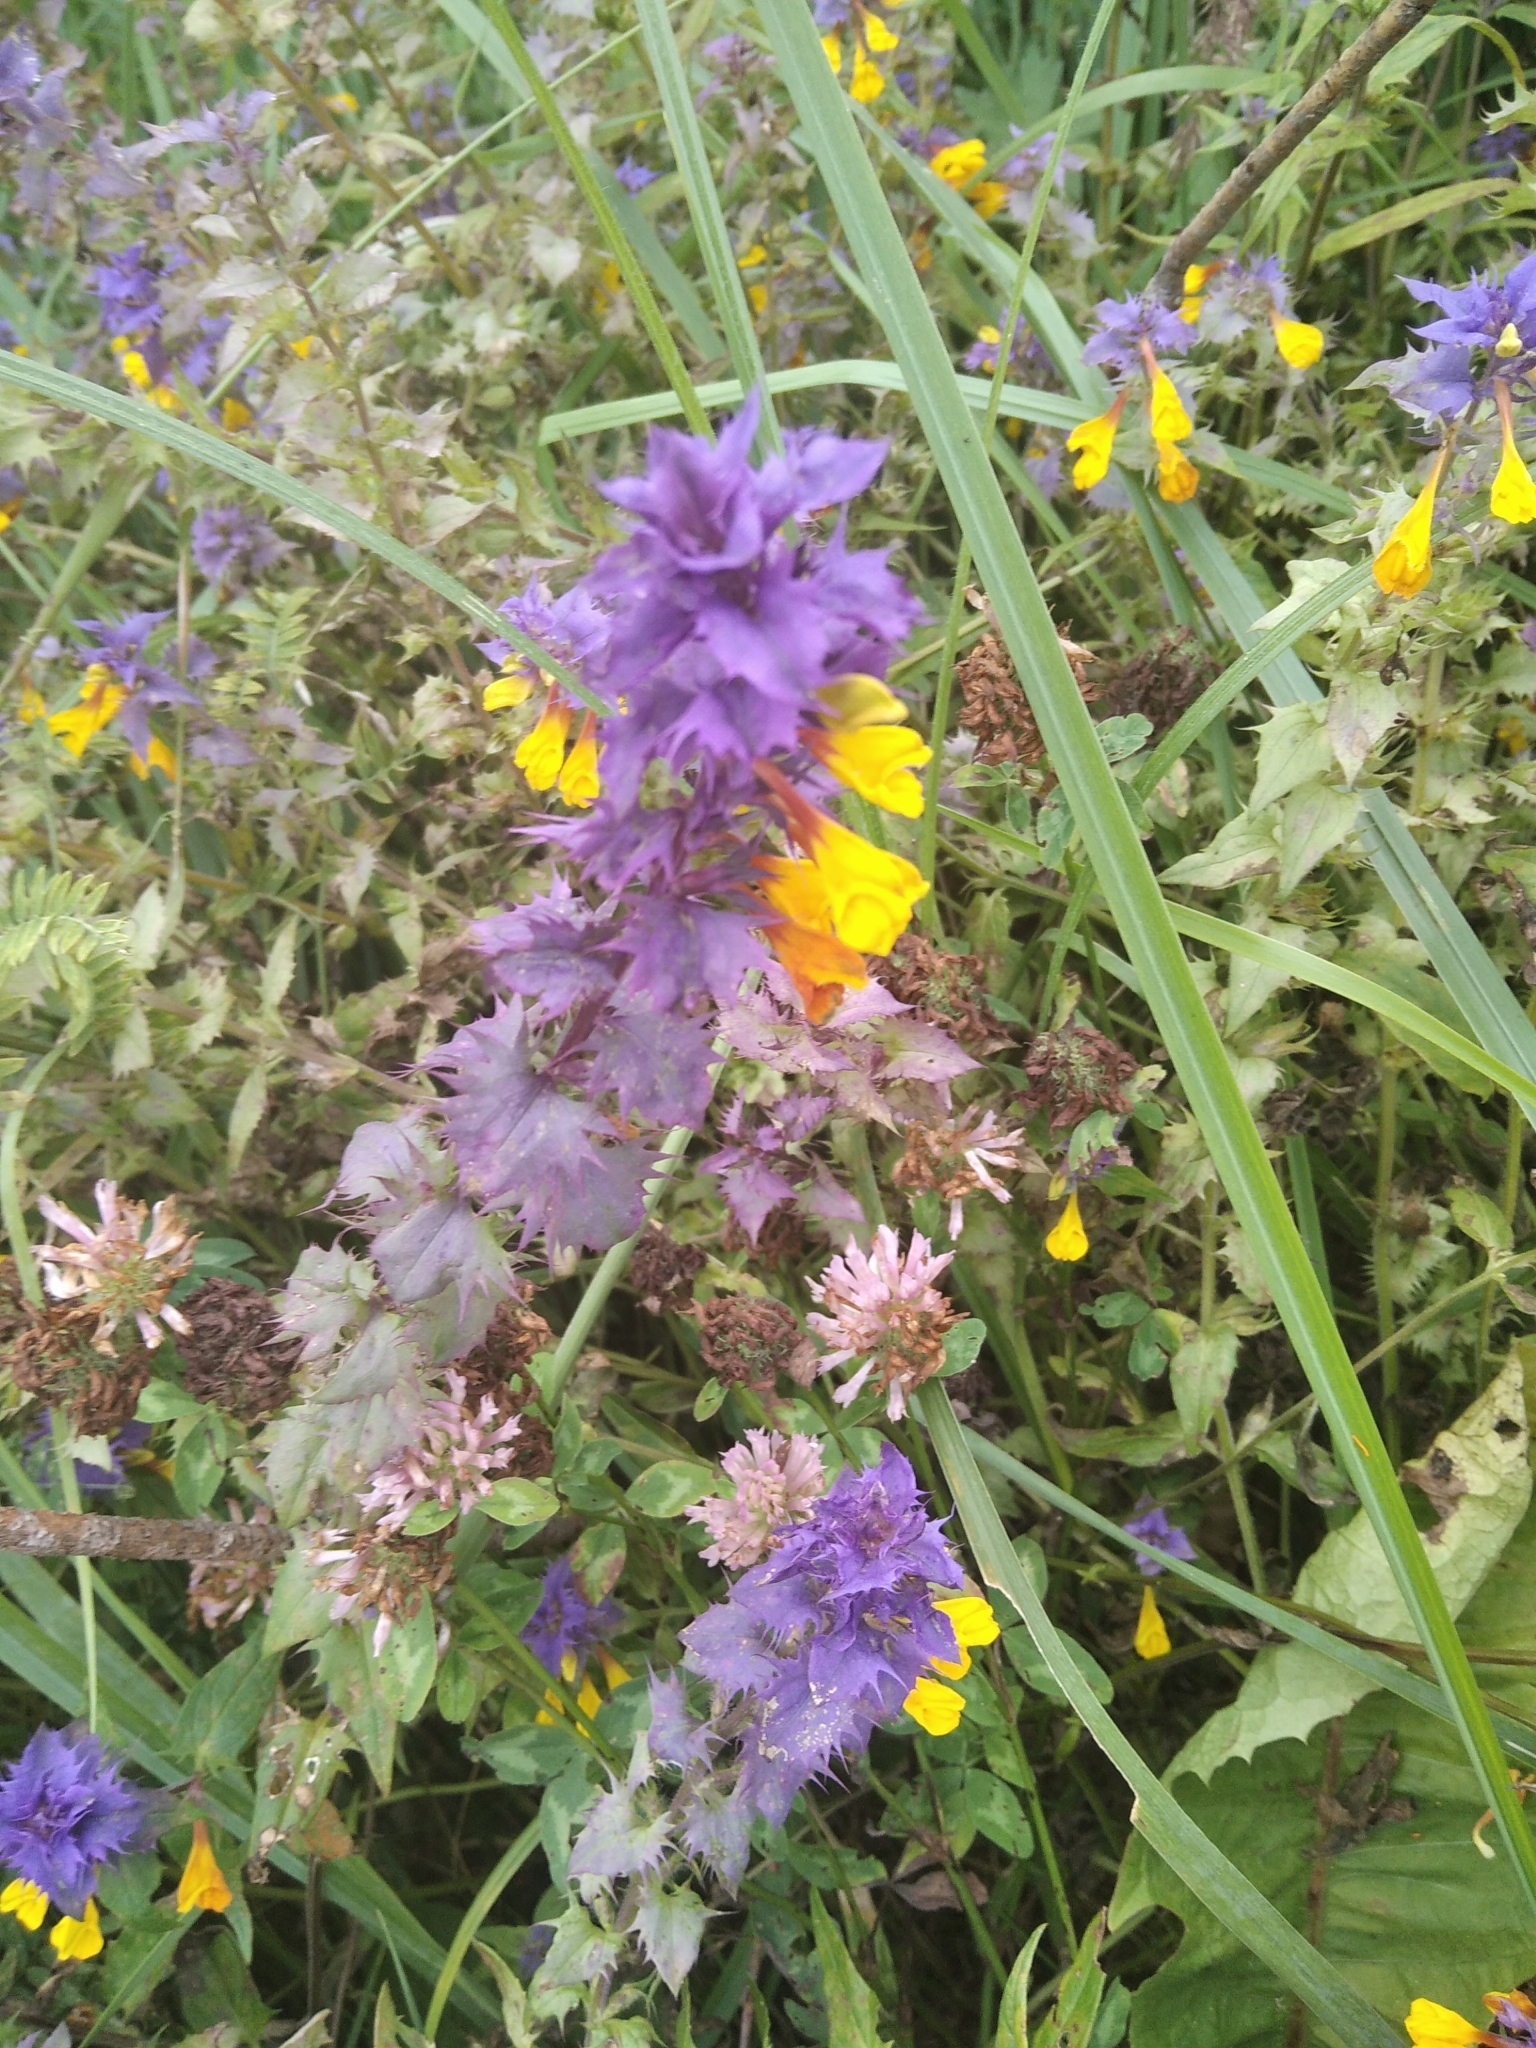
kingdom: Plantae
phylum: Tracheophyta
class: Magnoliopsida
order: Lamiales
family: Orobanchaceae
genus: Melampyrum
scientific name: Melampyrum nemorosum
